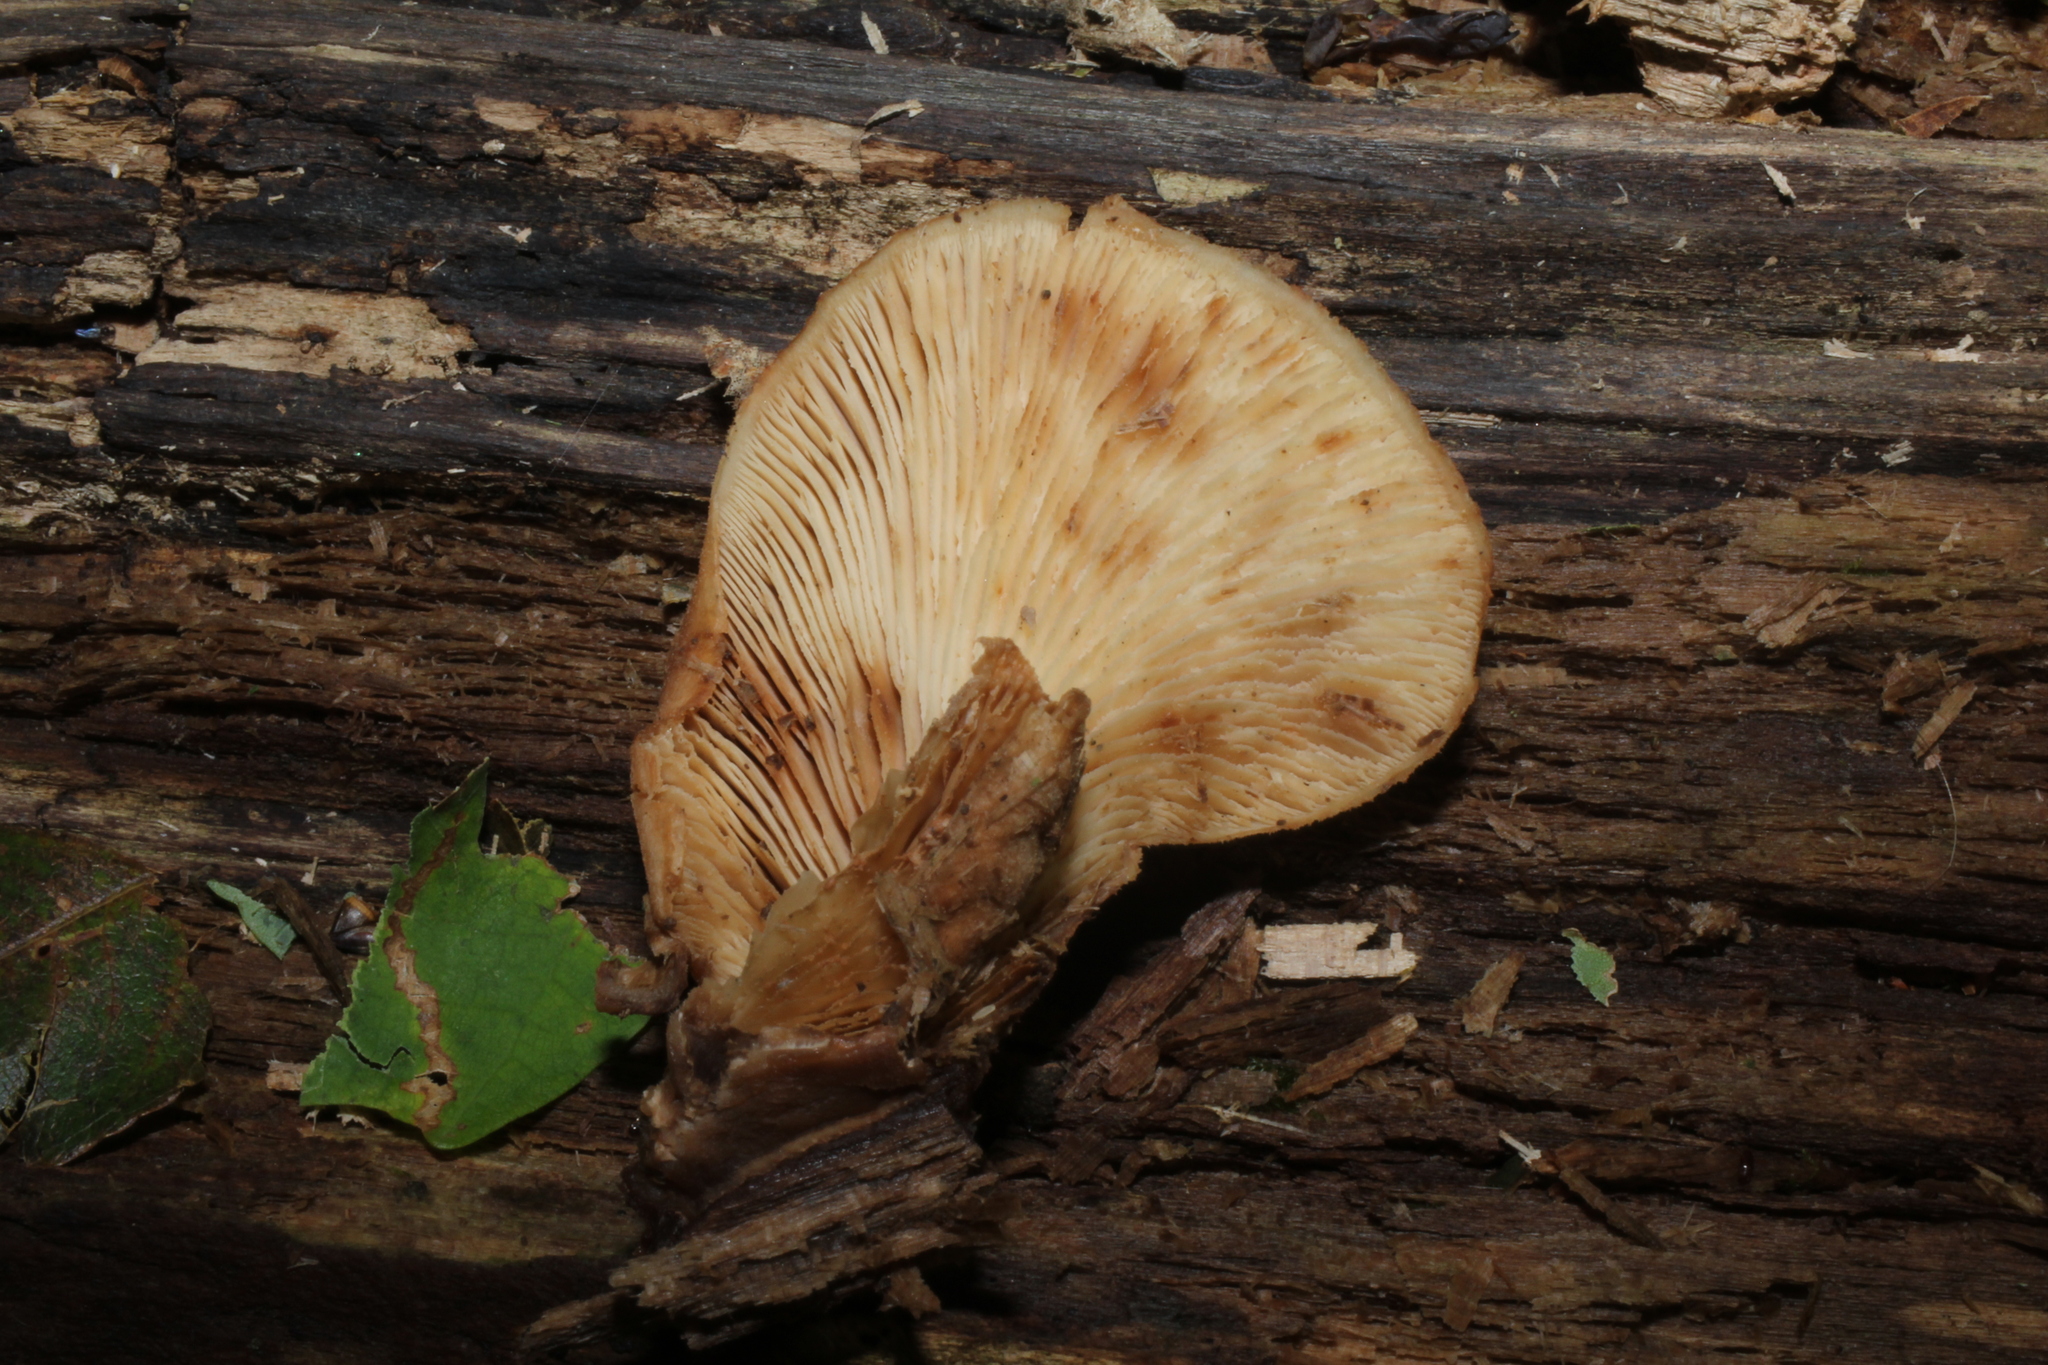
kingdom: Fungi
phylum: Basidiomycota
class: Agaricomycetes
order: Russulales
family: Auriscalpiaceae
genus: Lentinellus
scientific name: Lentinellus ursinus
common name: Bear lentinus
